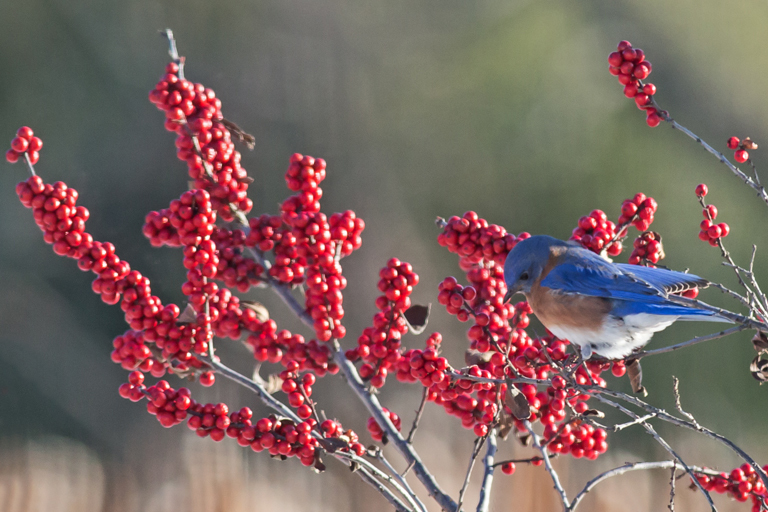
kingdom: Animalia
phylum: Chordata
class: Aves
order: Passeriformes
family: Turdidae
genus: Sialia
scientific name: Sialia sialis
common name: Eastern bluebird
